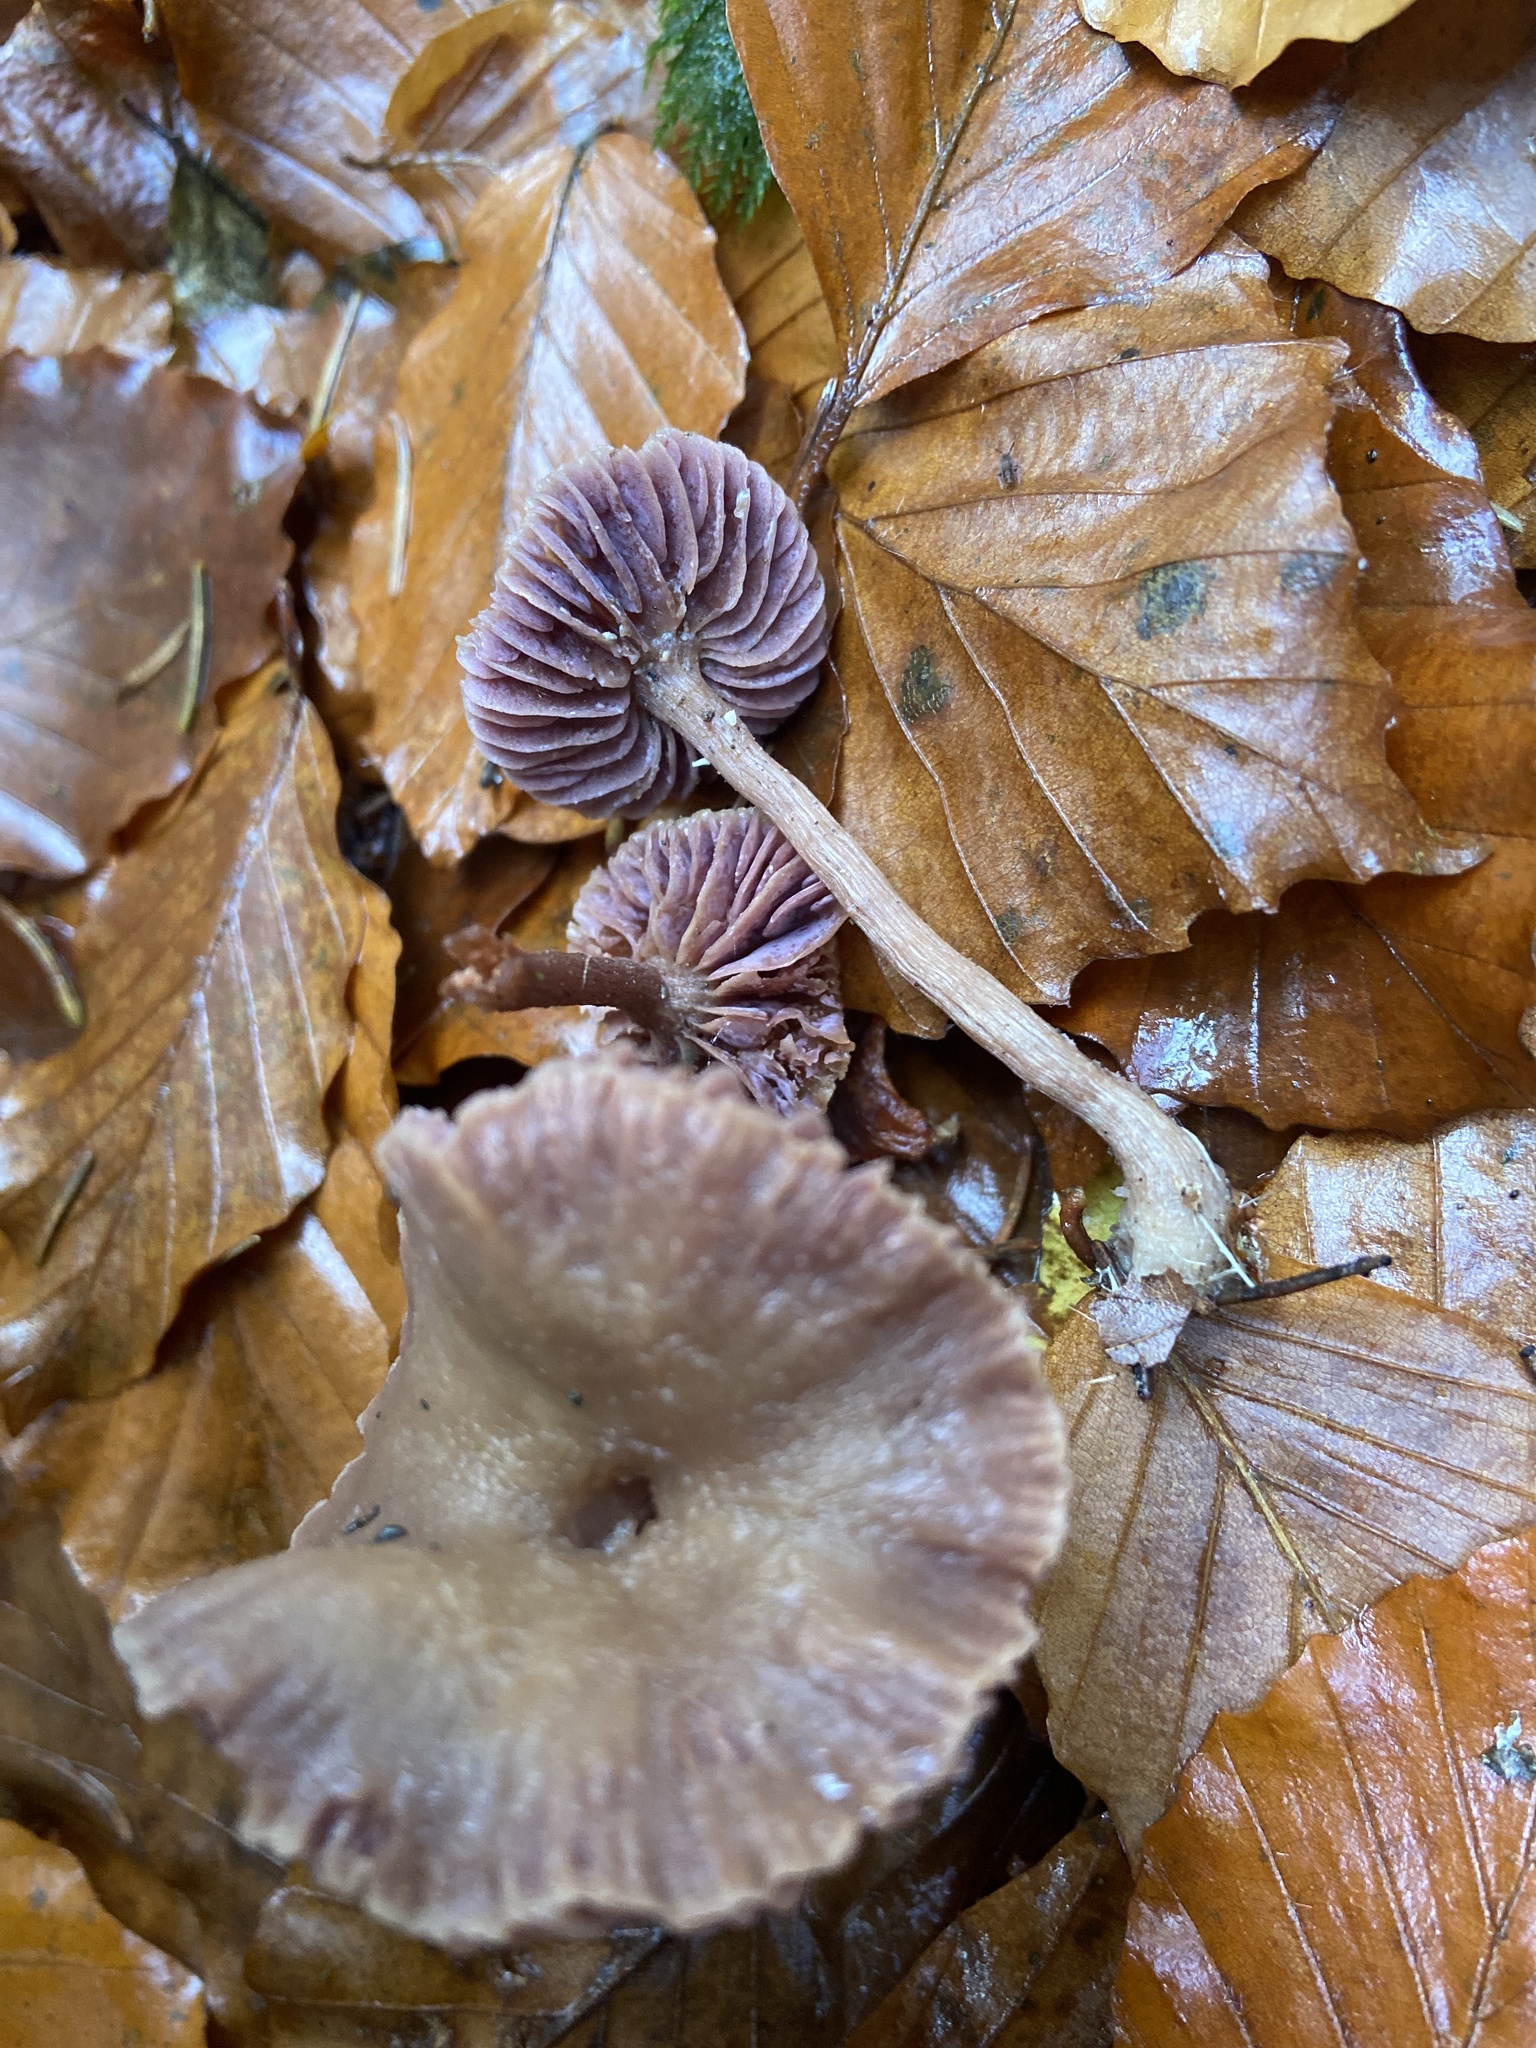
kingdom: Fungi
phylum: Basidiomycota
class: Agaricomycetes
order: Agaricales
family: Hydnangiaceae
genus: Laccaria
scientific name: Laccaria amethystina
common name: Amethyst deceiver
